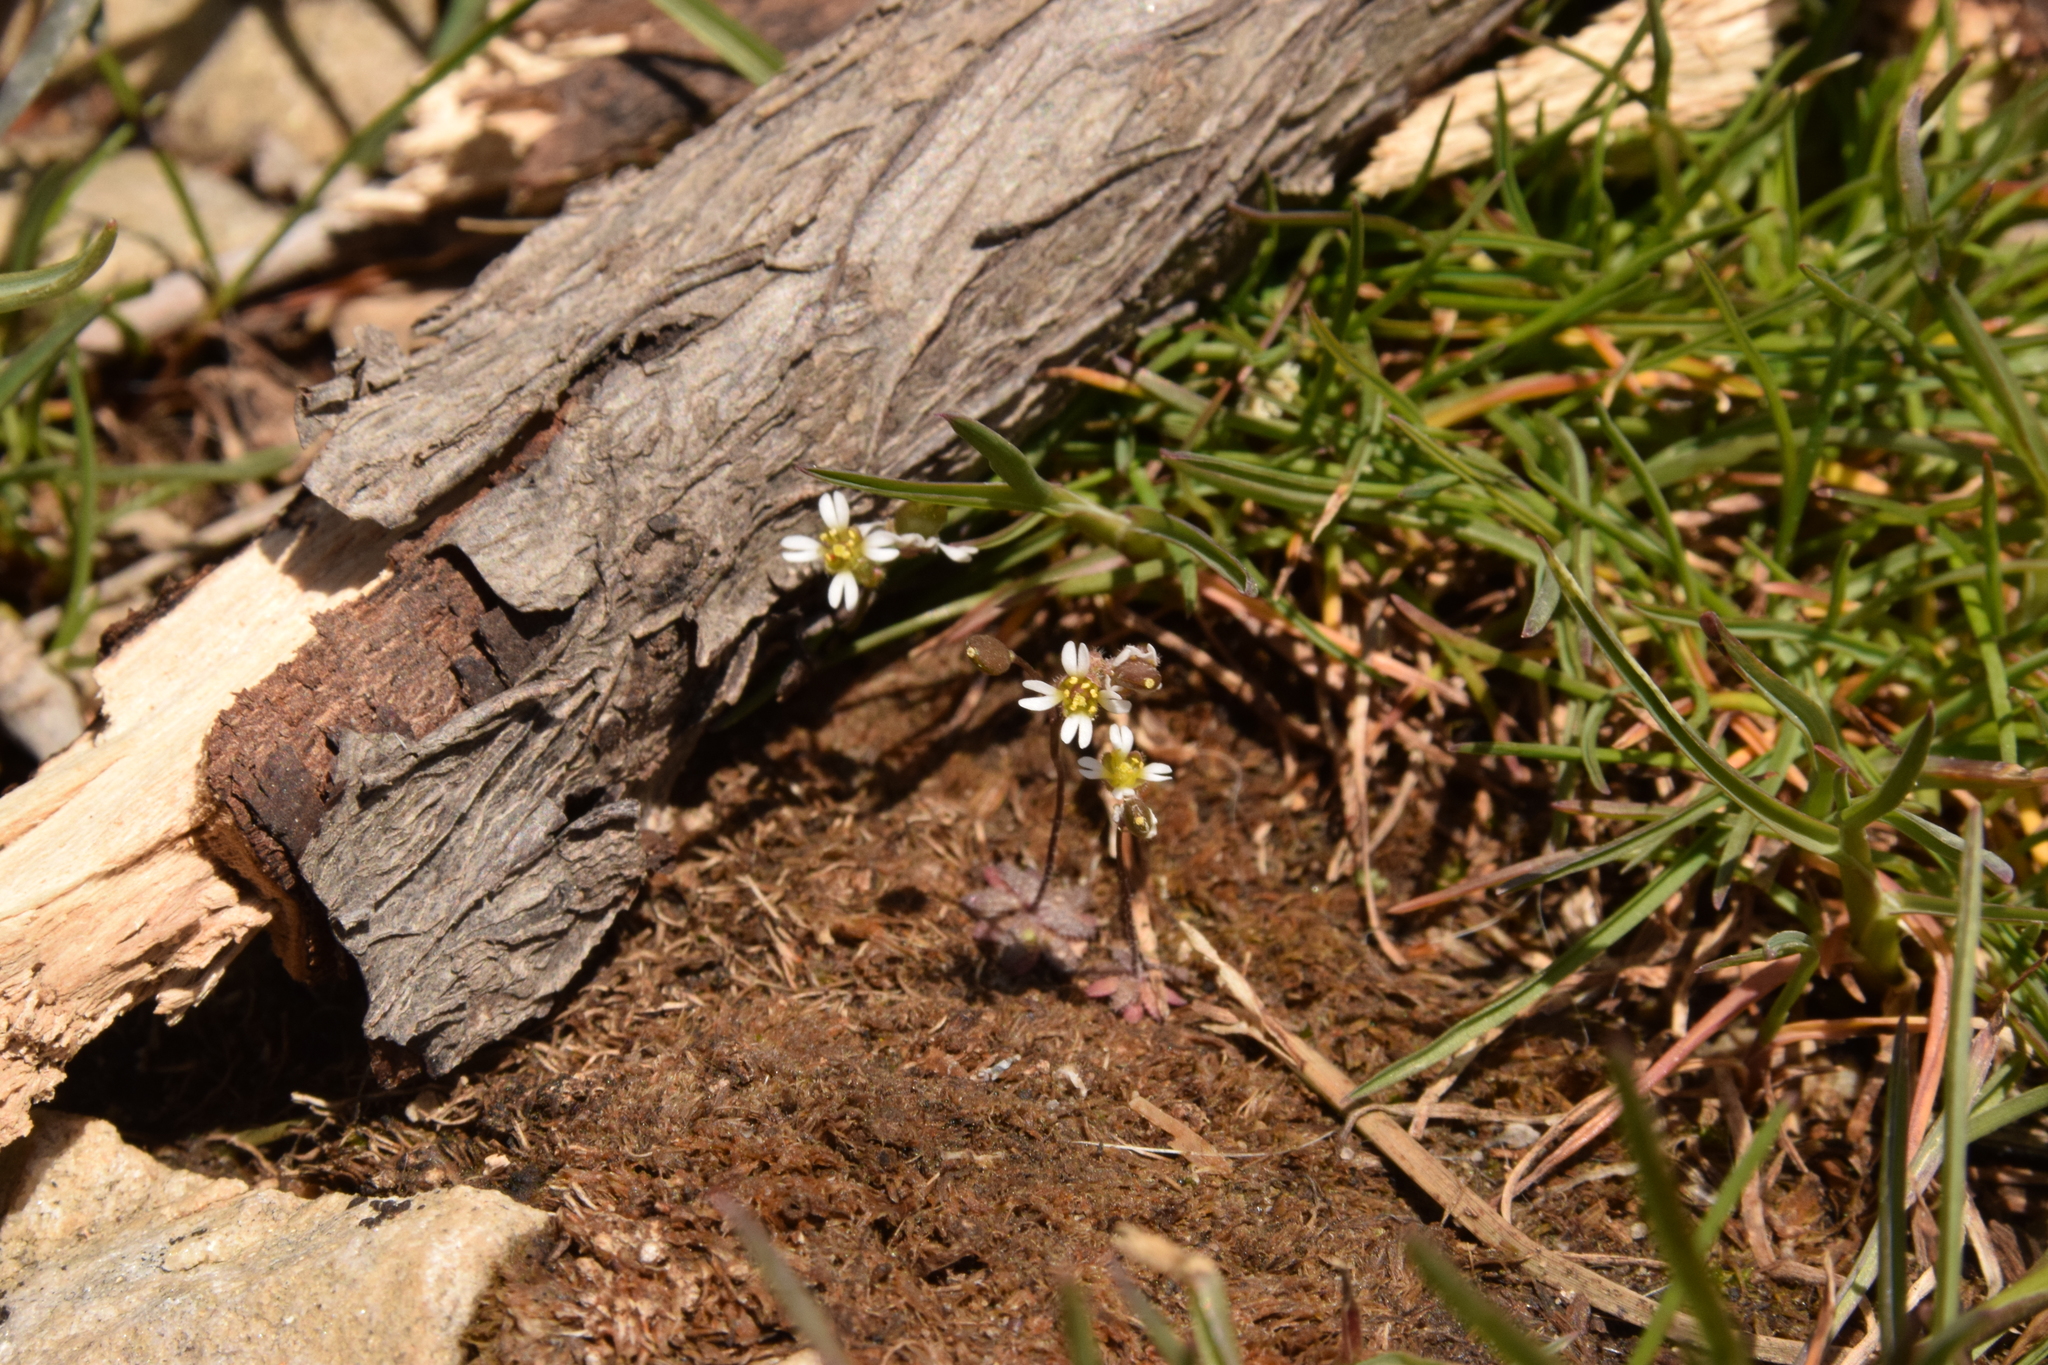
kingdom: Plantae
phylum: Tracheophyta
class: Magnoliopsida
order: Brassicales
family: Brassicaceae
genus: Draba
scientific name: Draba verna
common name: Spring draba
